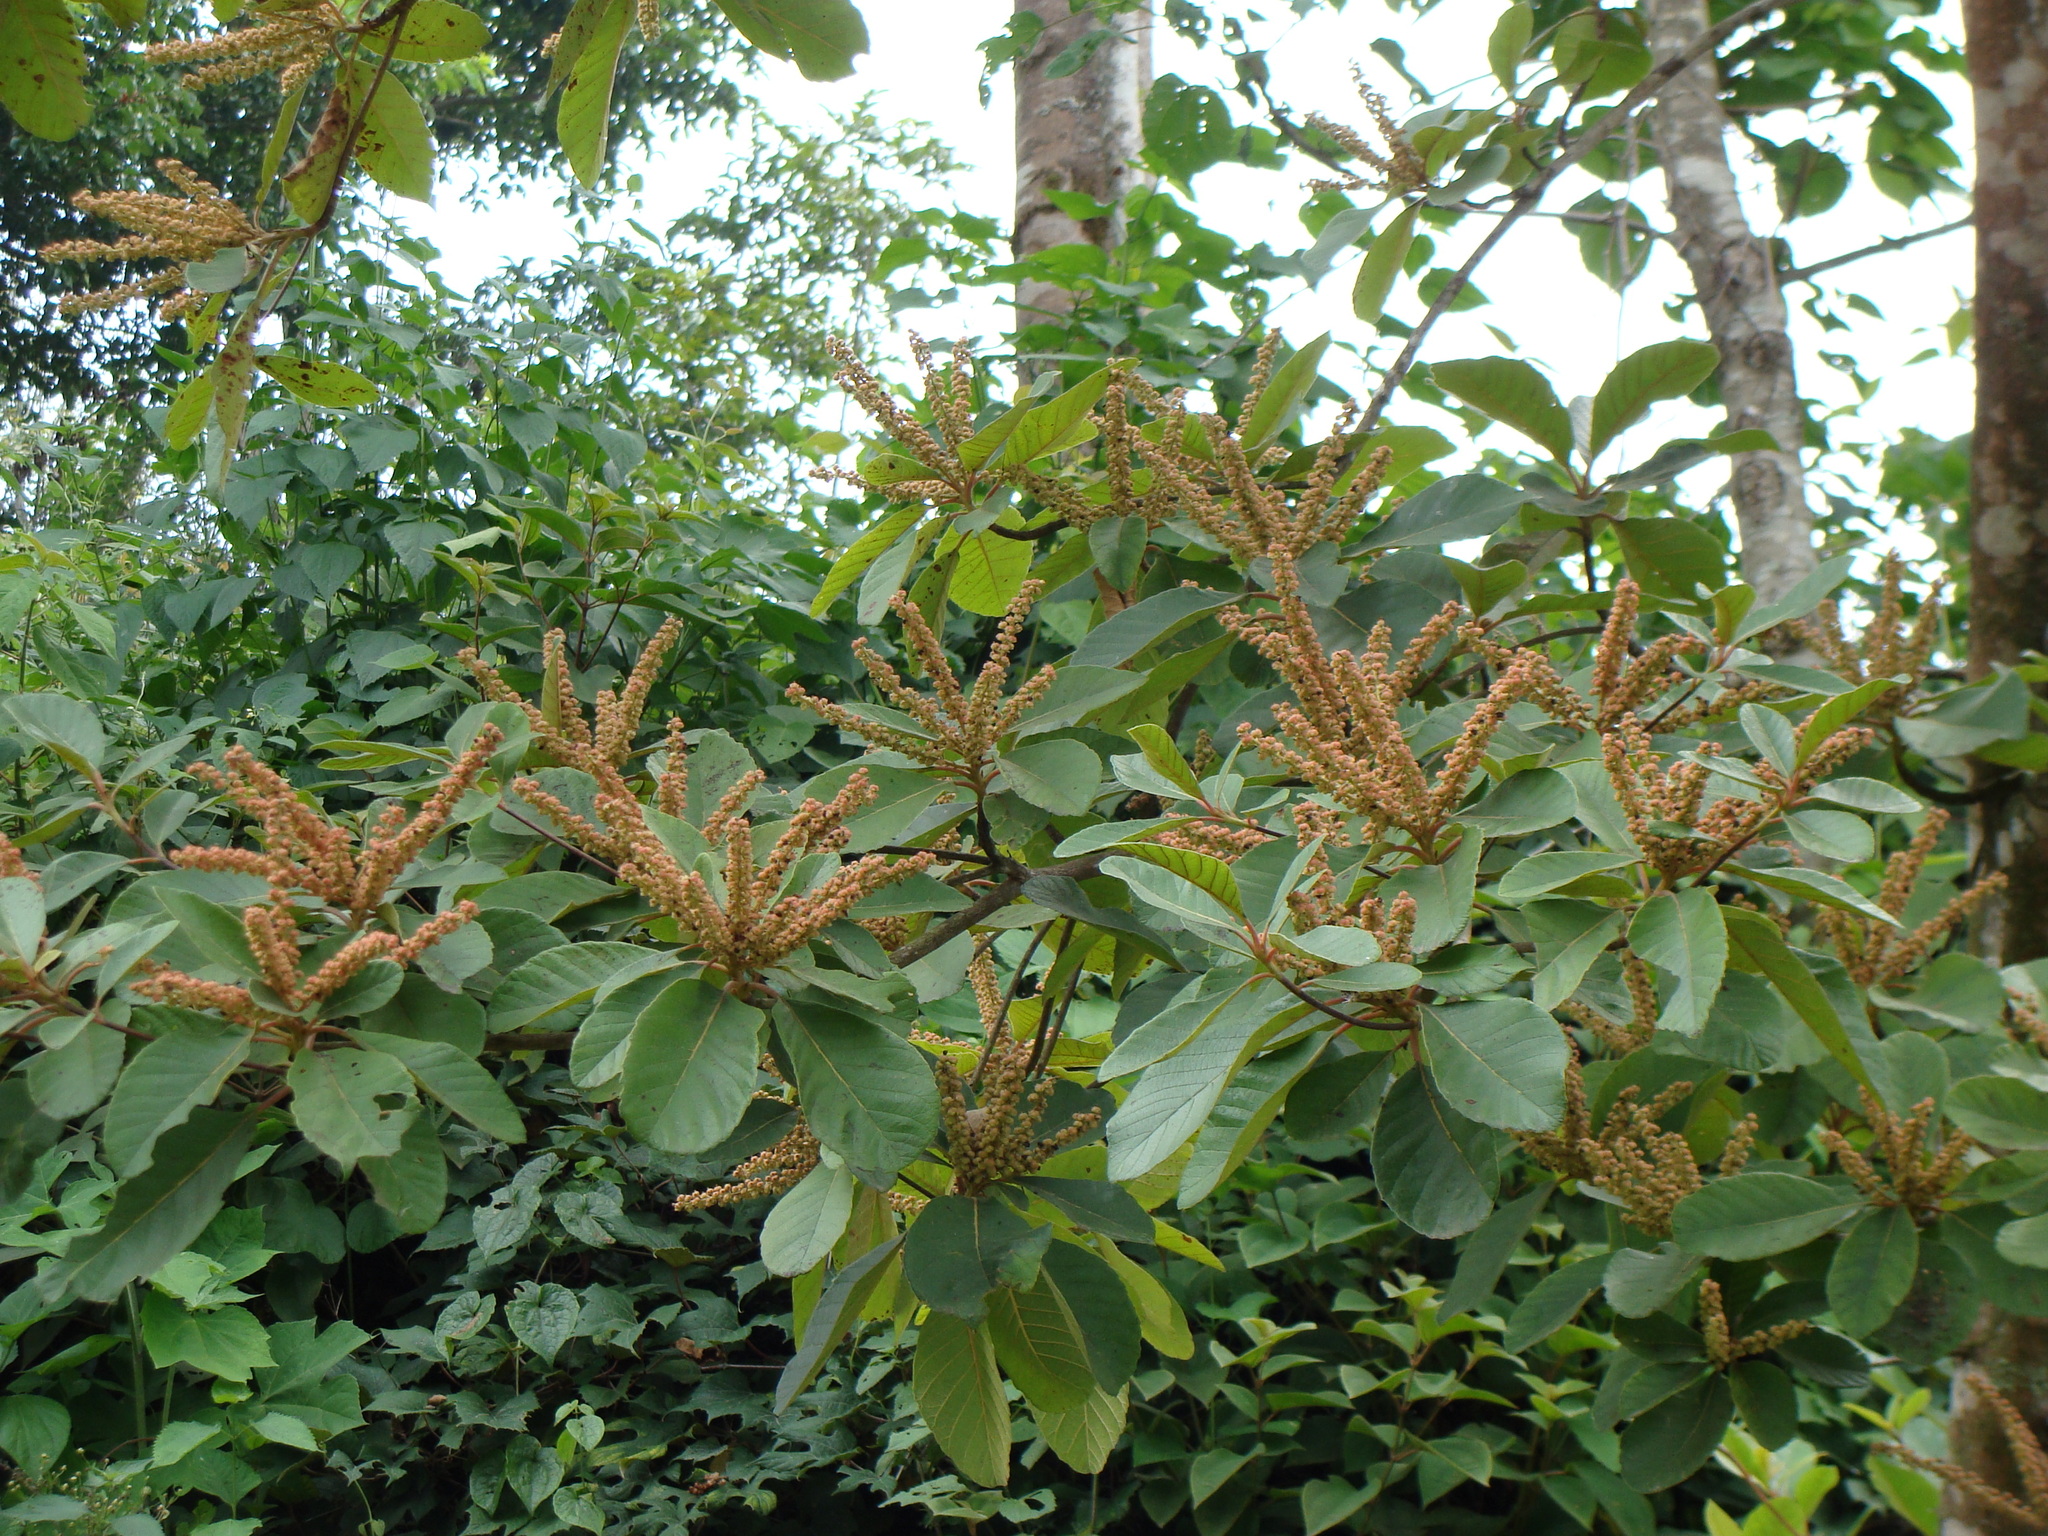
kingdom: Plantae
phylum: Tracheophyta
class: Magnoliopsida
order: Ericales
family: Clethraceae
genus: Clethra
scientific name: Clethra mexicana
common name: Nance macho
